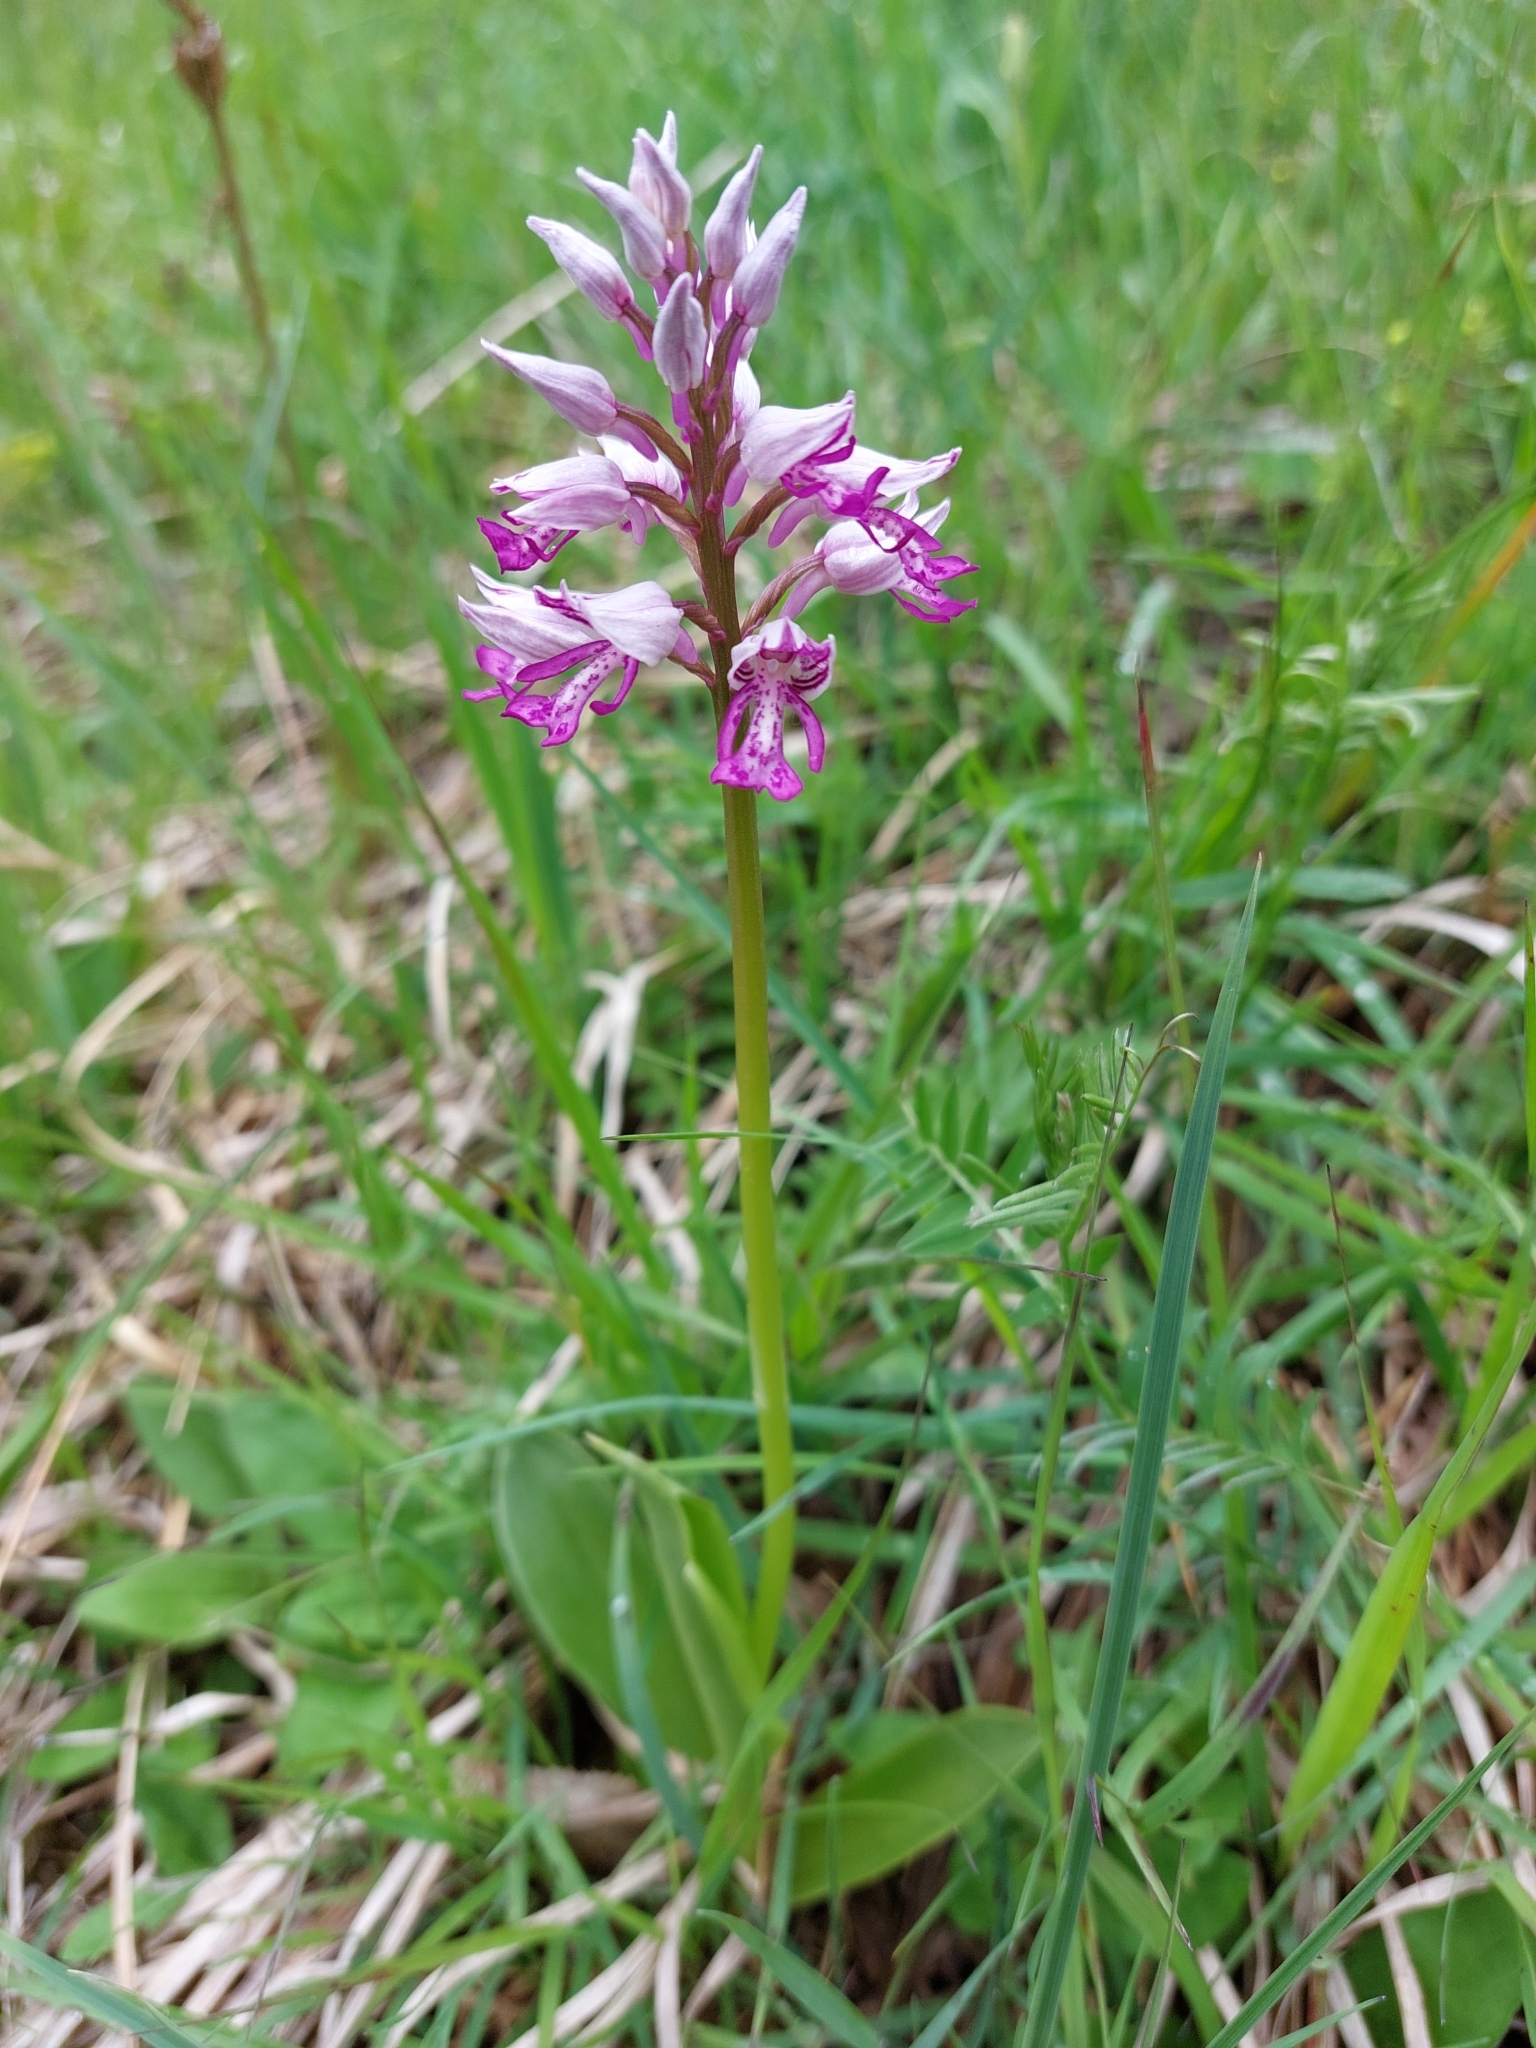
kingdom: Plantae
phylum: Tracheophyta
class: Liliopsida
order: Asparagales
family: Orchidaceae
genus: Orchis
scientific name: Orchis militaris
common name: Military orchid
